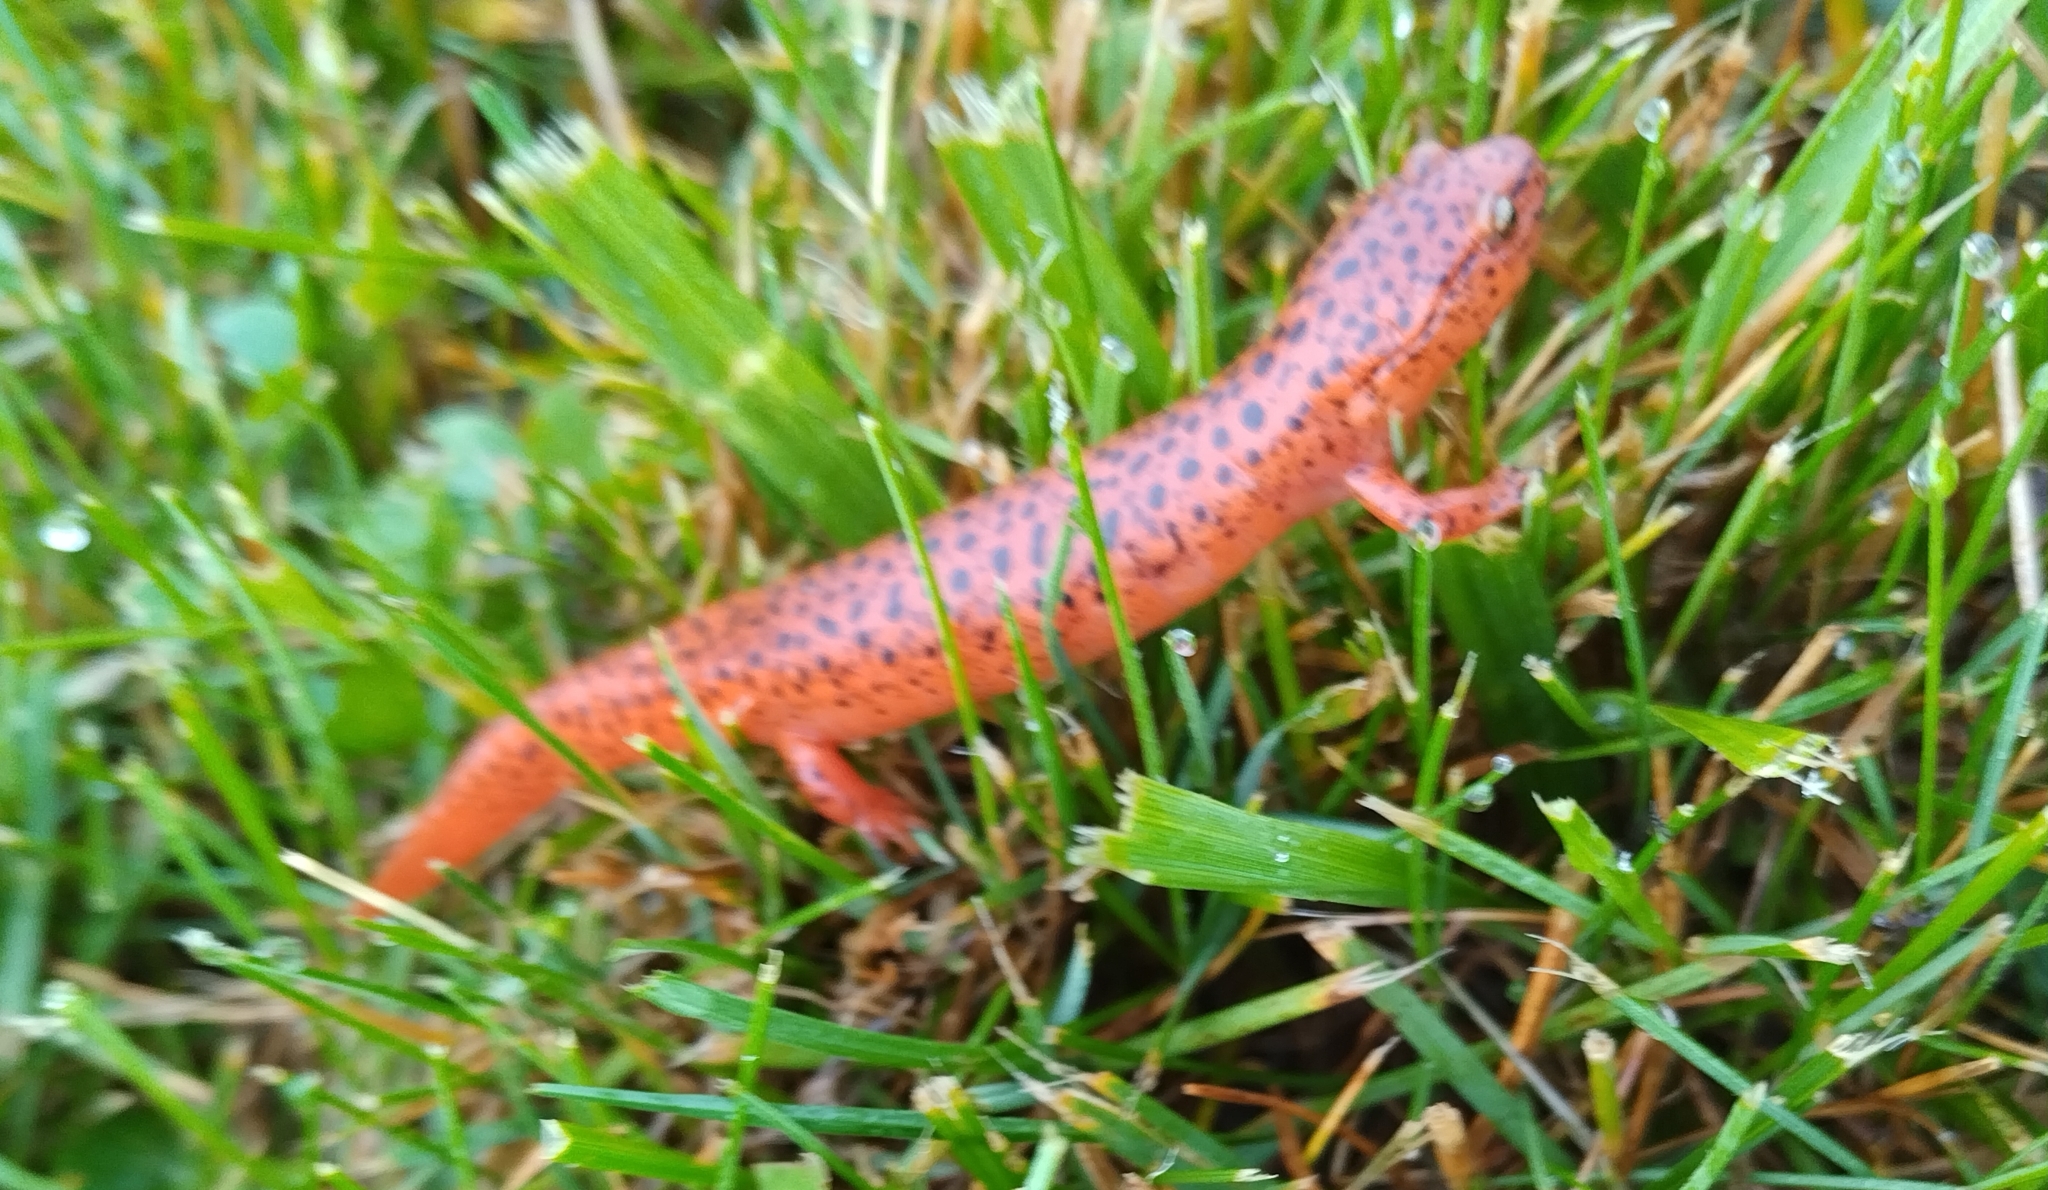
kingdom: Animalia
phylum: Chordata
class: Amphibia
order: Caudata
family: Plethodontidae
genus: Pseudotriton
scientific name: Pseudotriton ruber
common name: Red salamander
